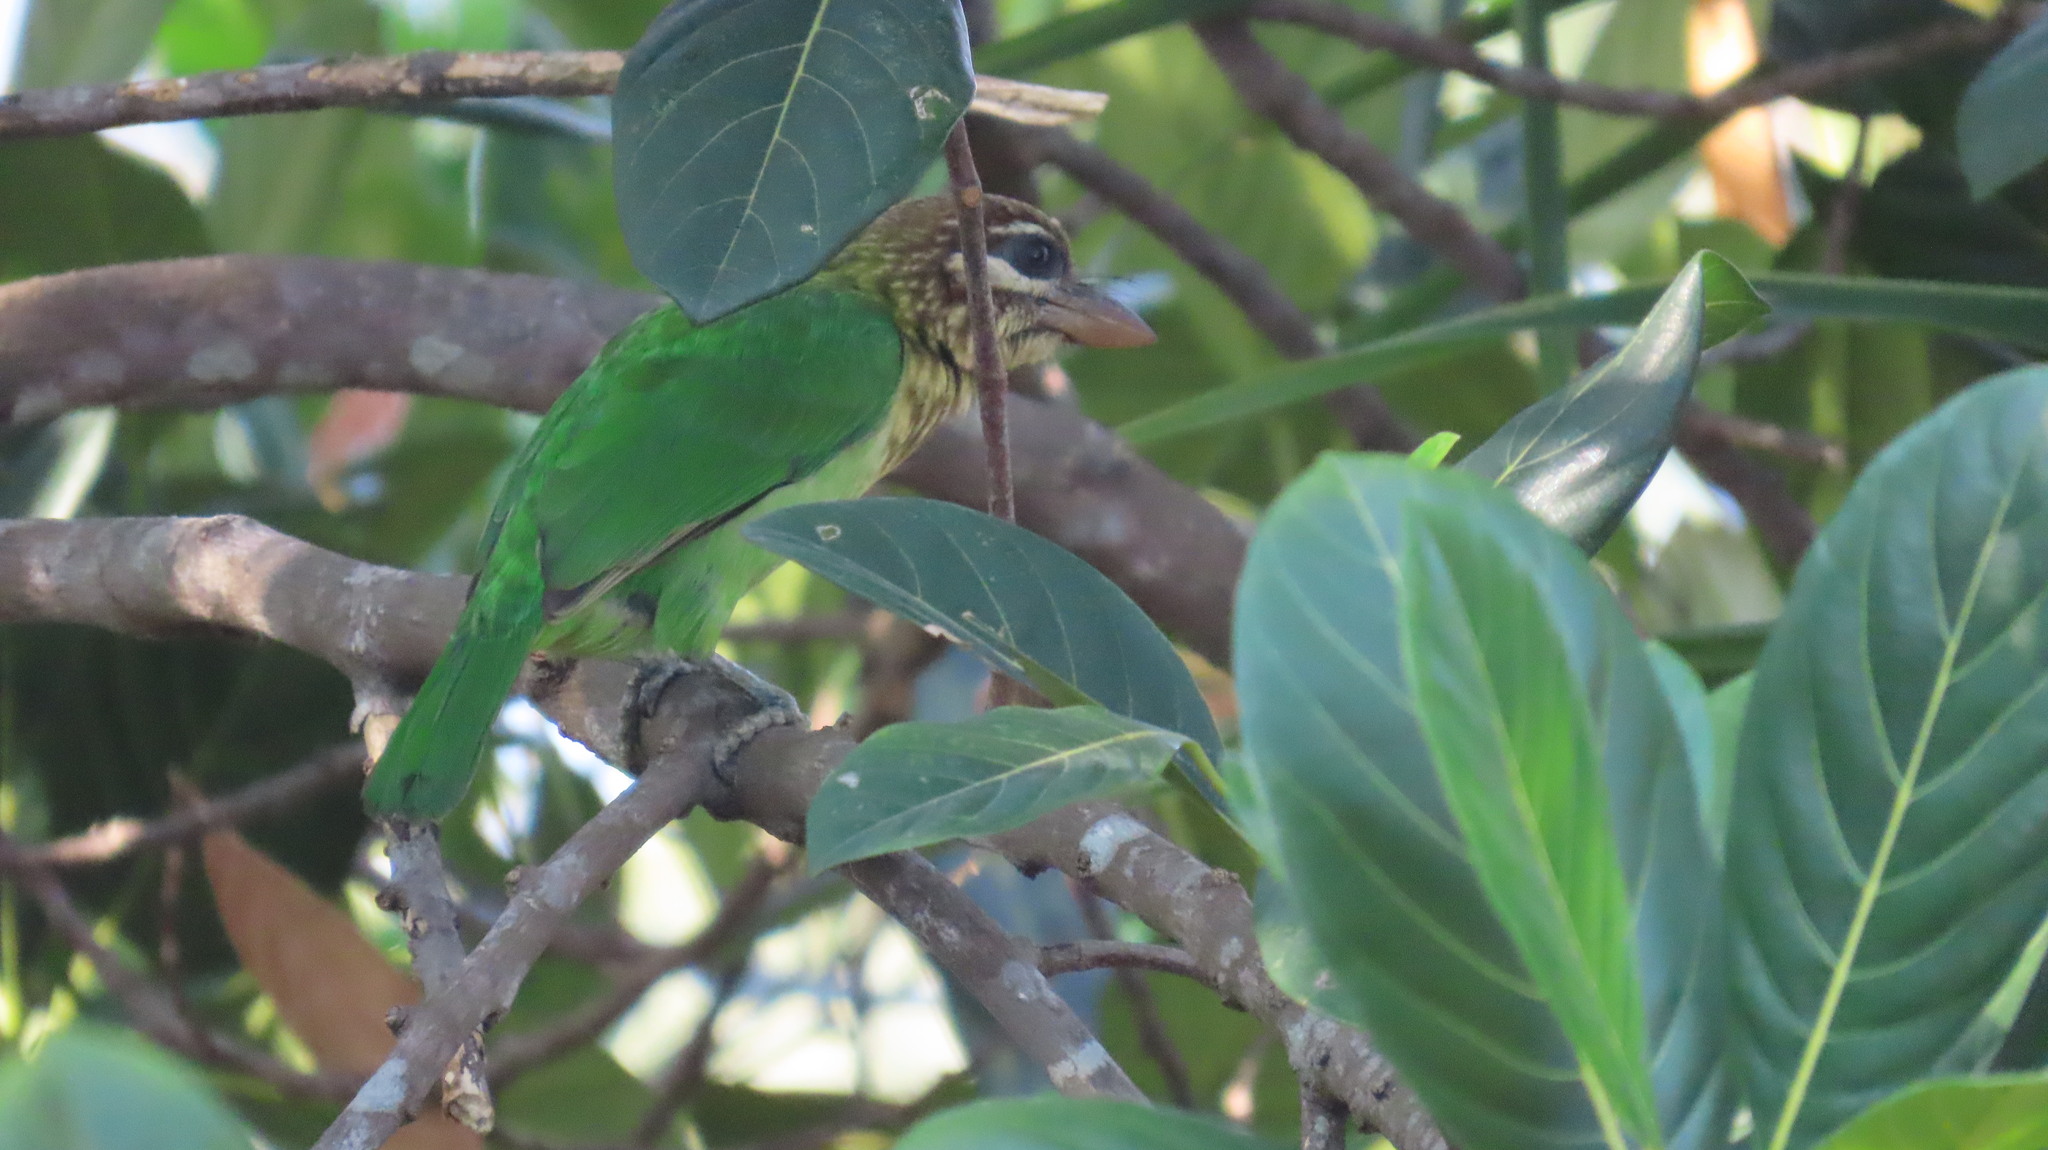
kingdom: Animalia
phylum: Chordata
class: Aves
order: Piciformes
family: Megalaimidae
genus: Psilopogon
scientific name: Psilopogon viridis
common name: White-cheeked barbet
